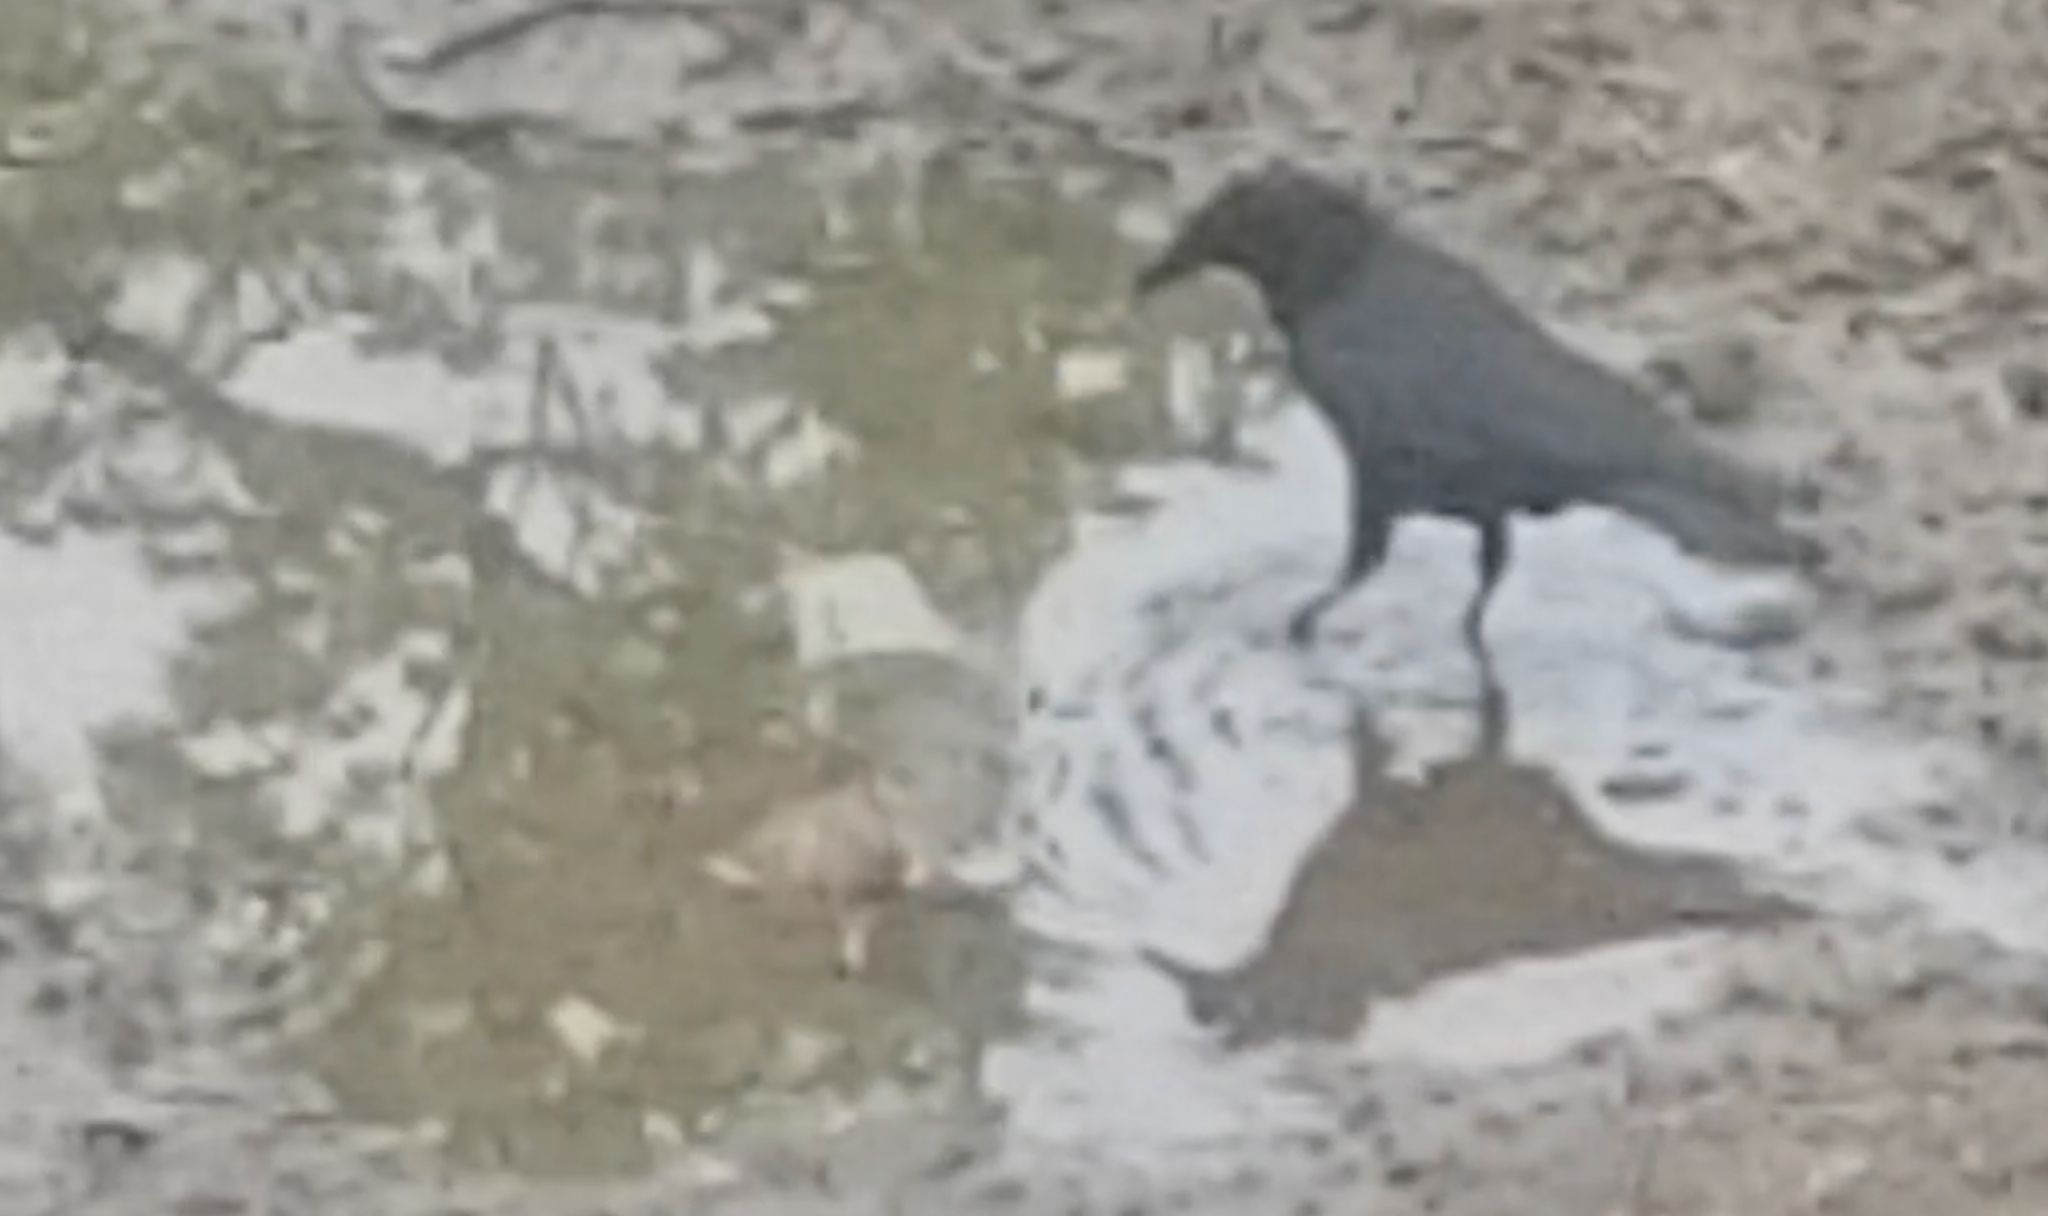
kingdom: Animalia
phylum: Chordata
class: Aves
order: Passeriformes
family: Corvidae
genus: Corvus
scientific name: Corvus brachyrhynchos
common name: American crow
